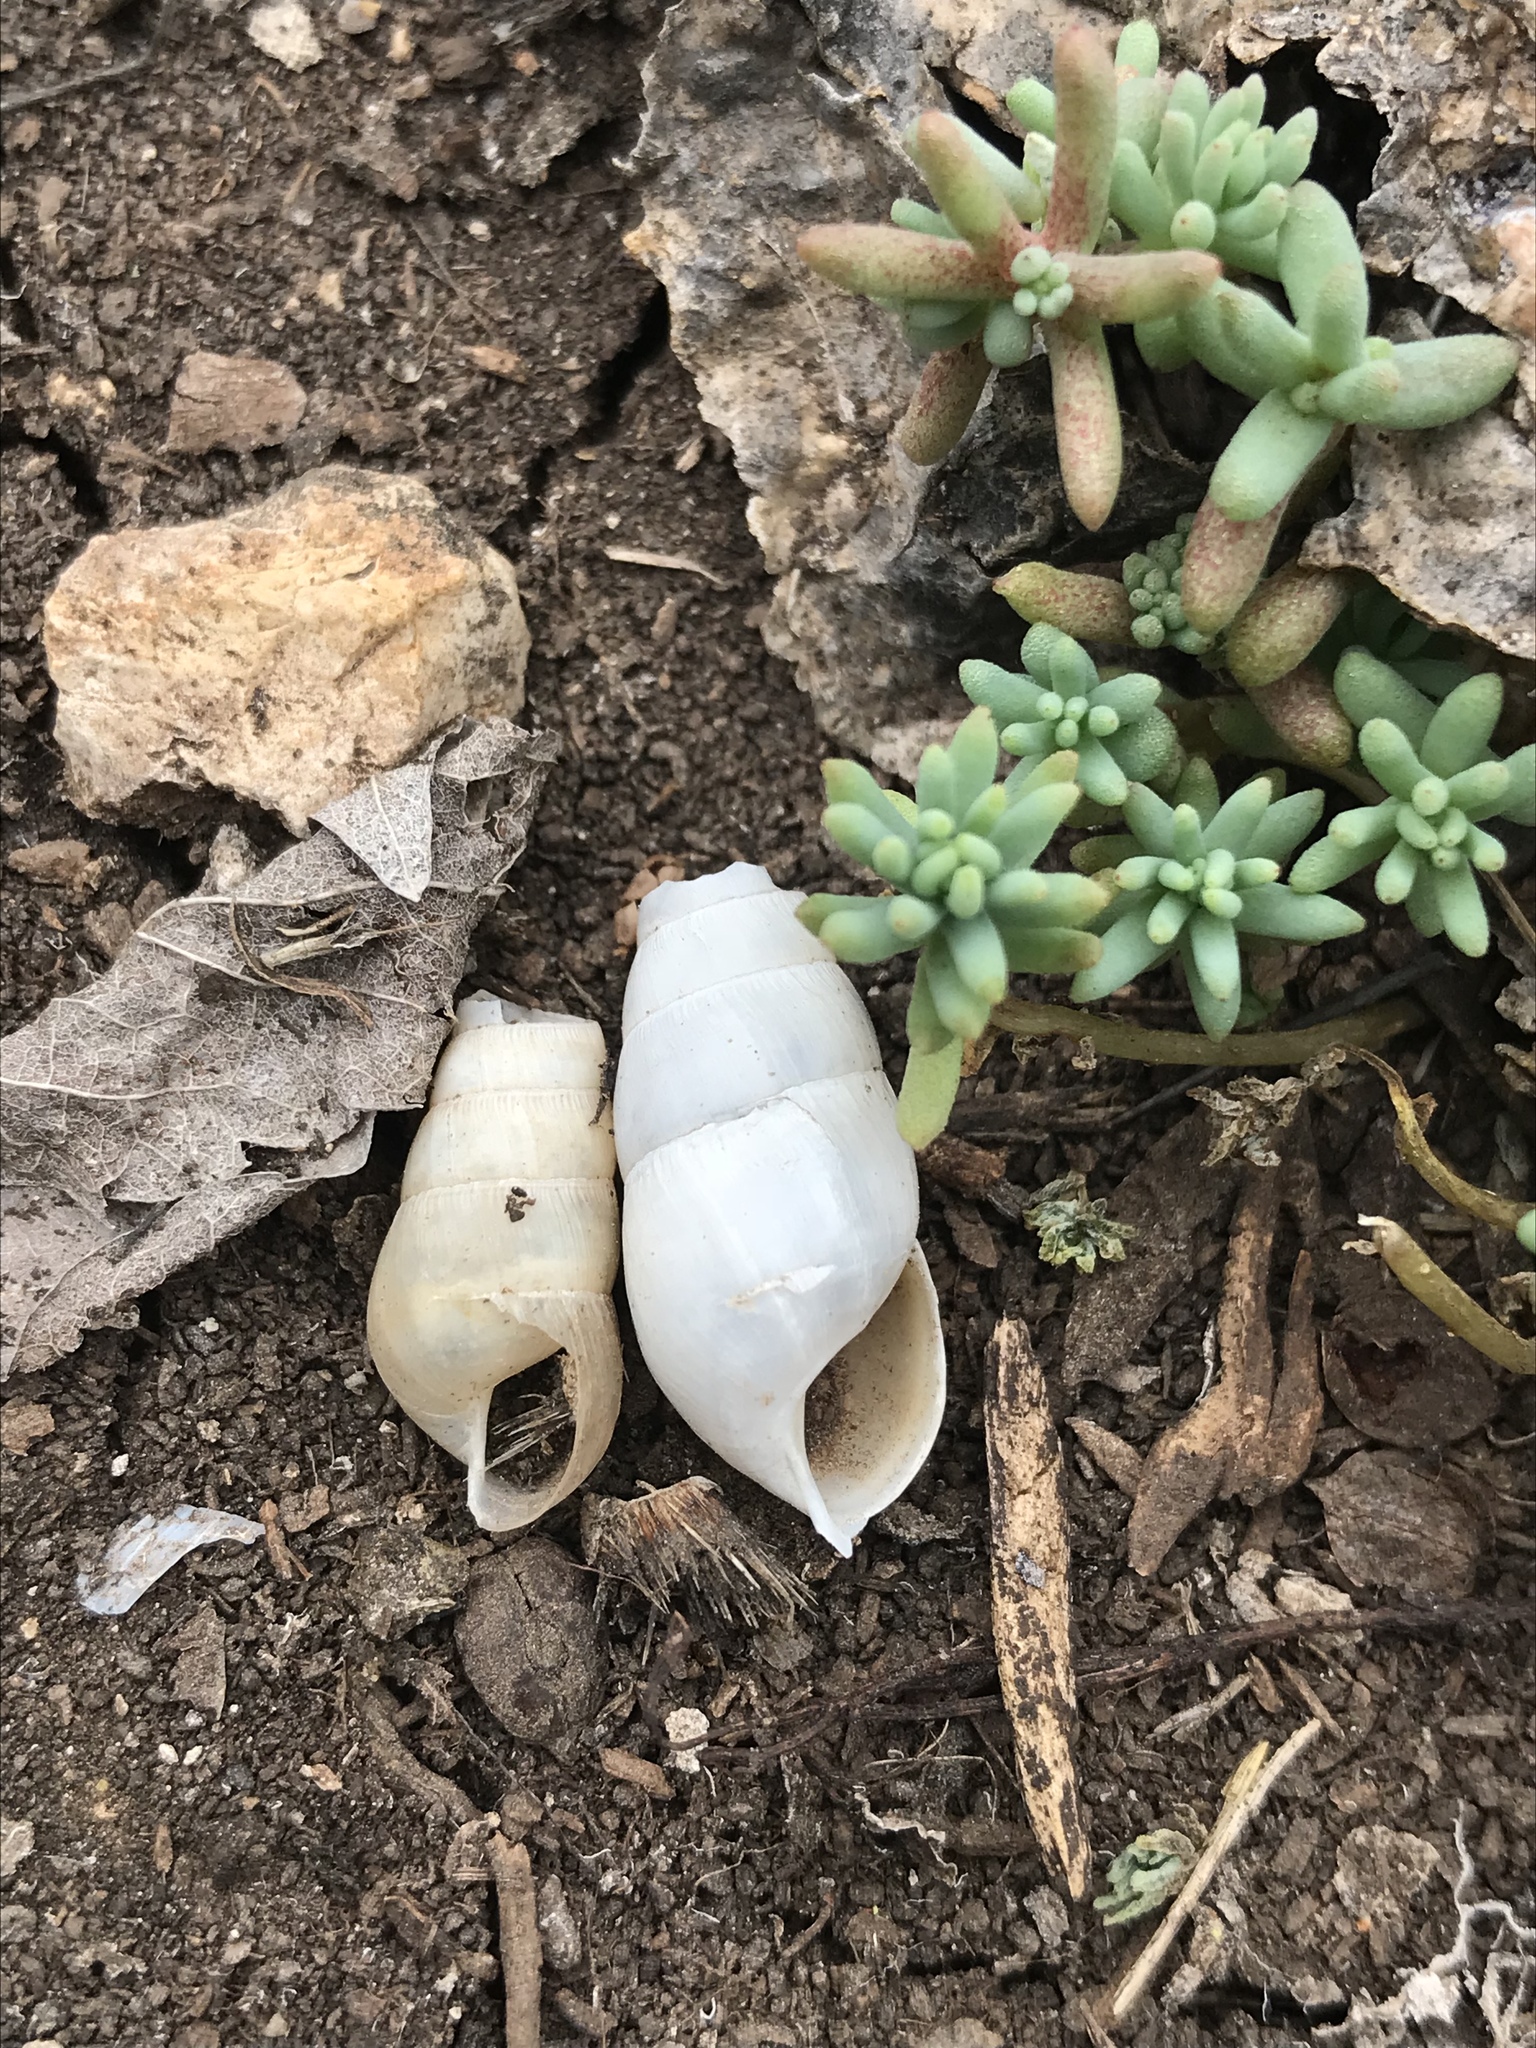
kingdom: Animalia
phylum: Mollusca
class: Gastropoda
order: Stylommatophora
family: Achatinidae
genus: Rumina
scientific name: Rumina decollata
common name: Decollate snail
